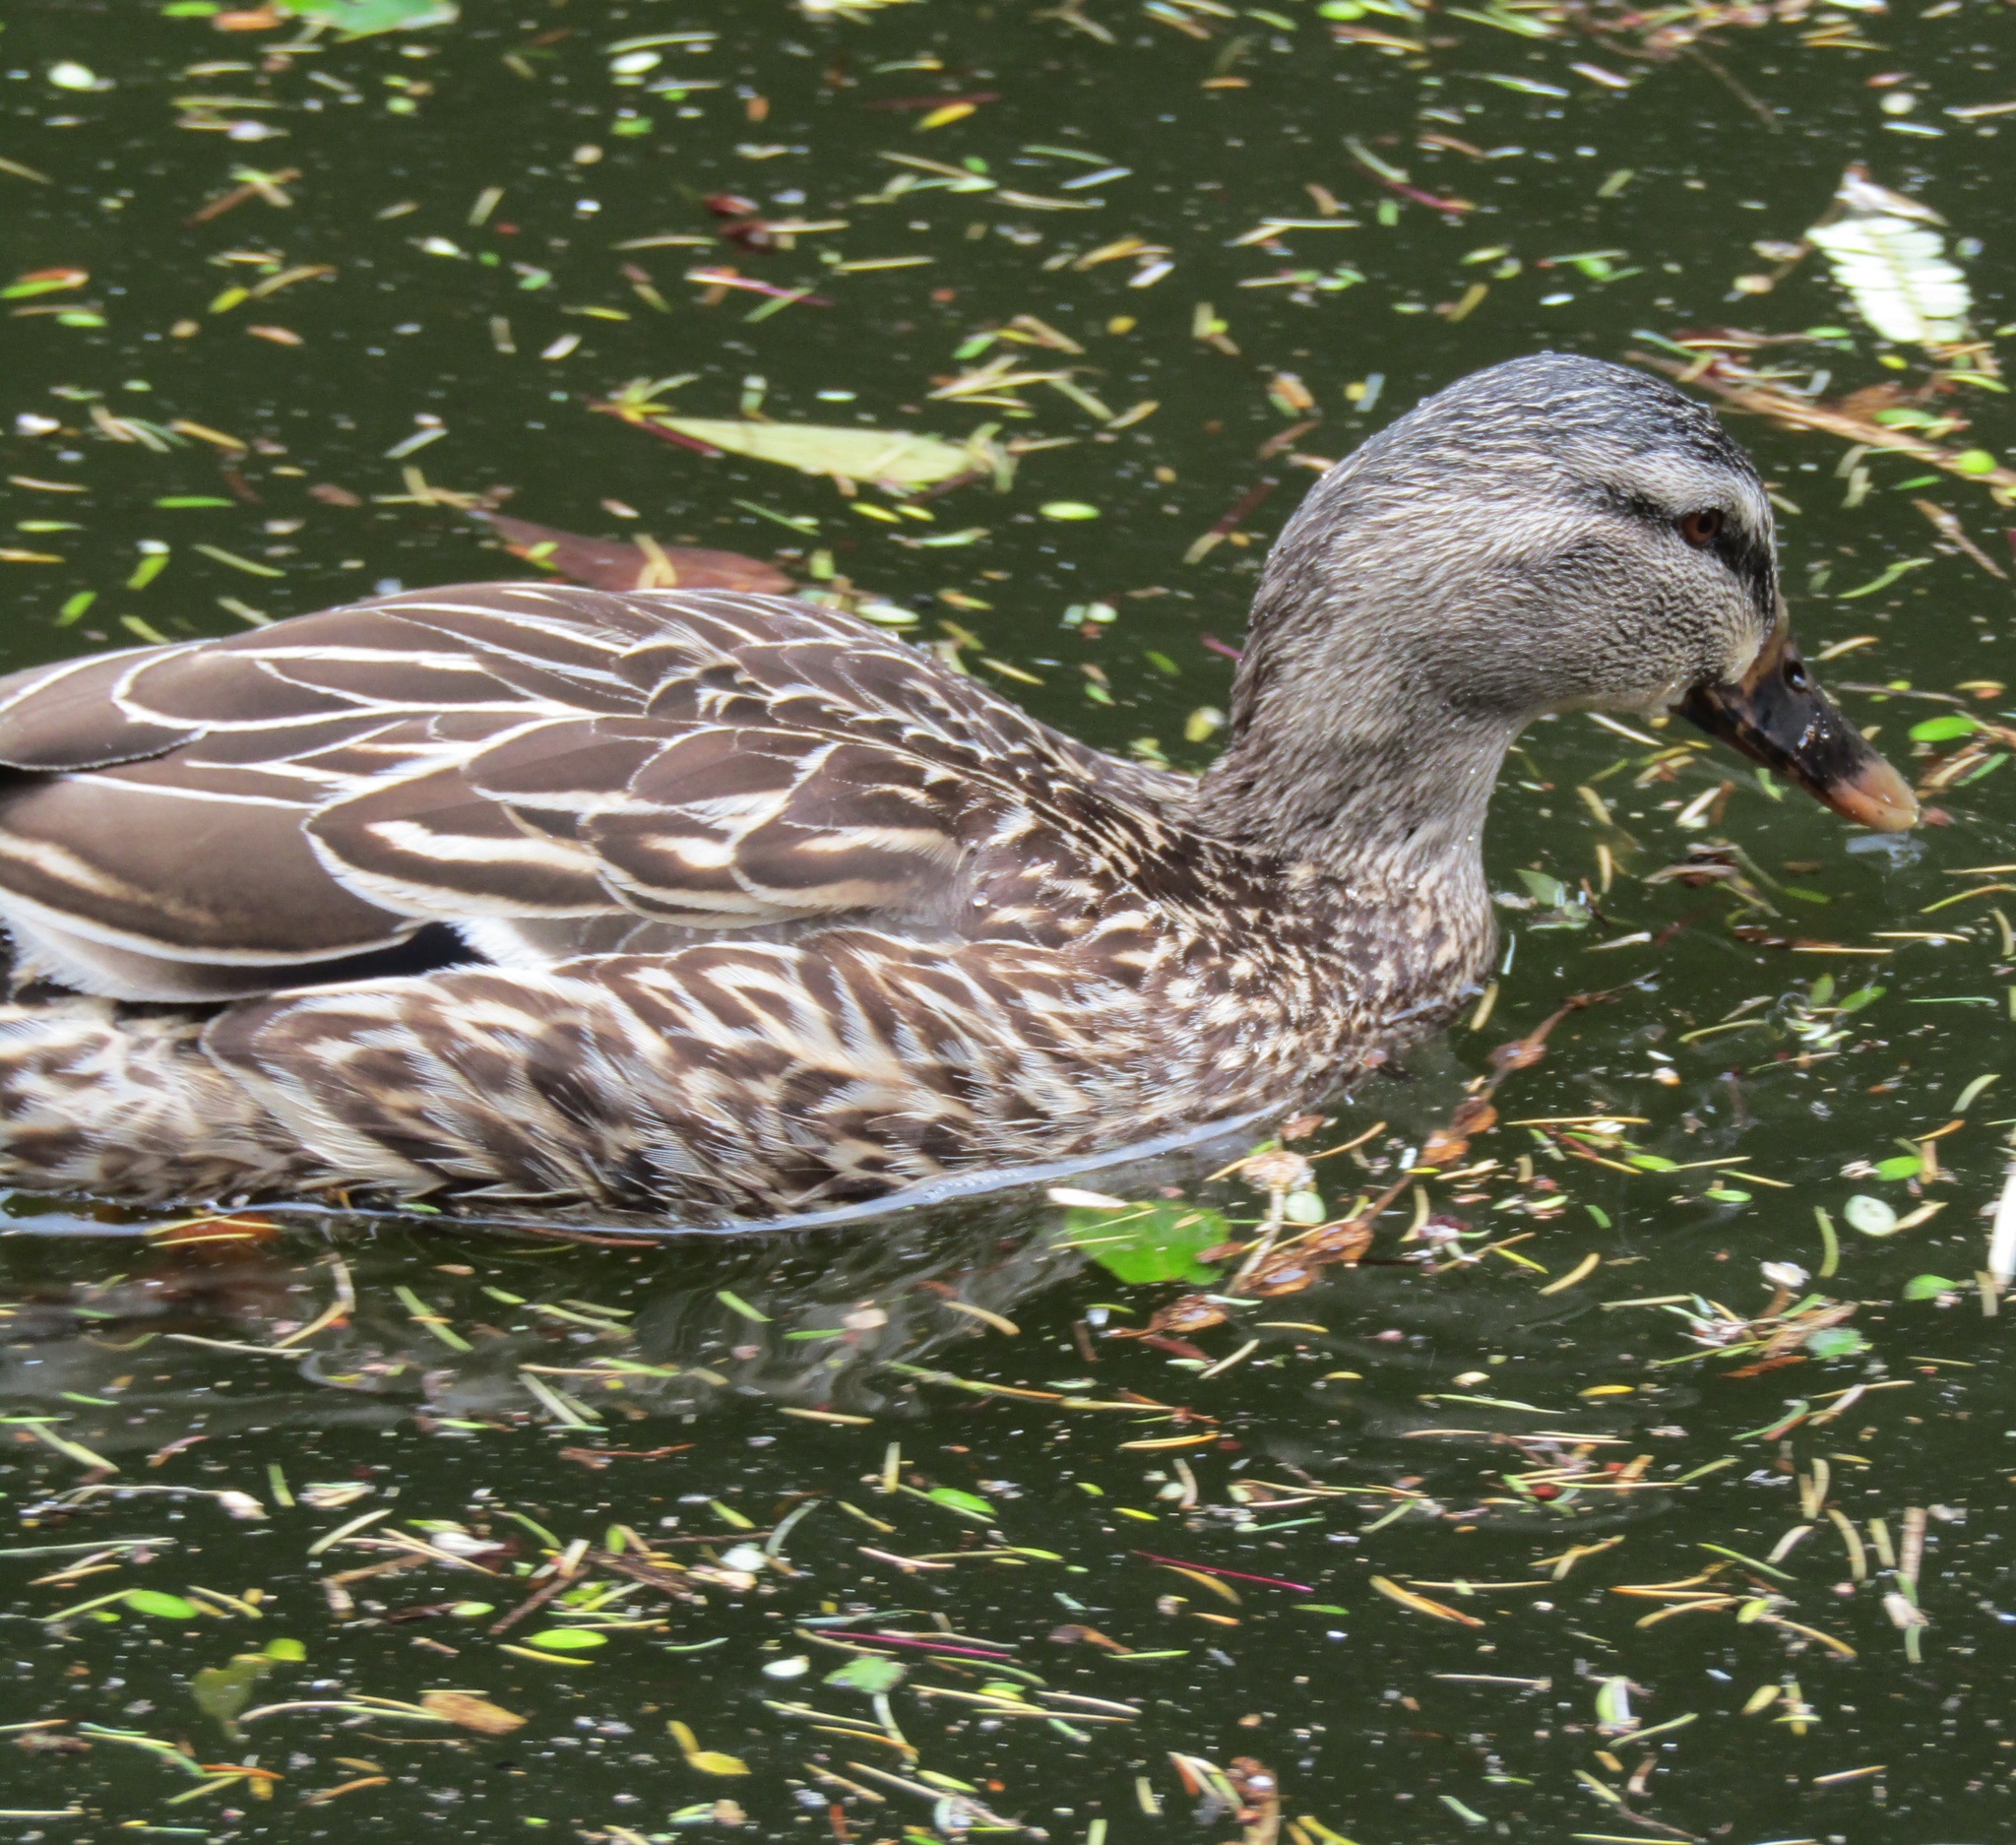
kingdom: Animalia
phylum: Chordata
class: Aves
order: Anseriformes
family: Anatidae
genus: Anas
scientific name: Anas
